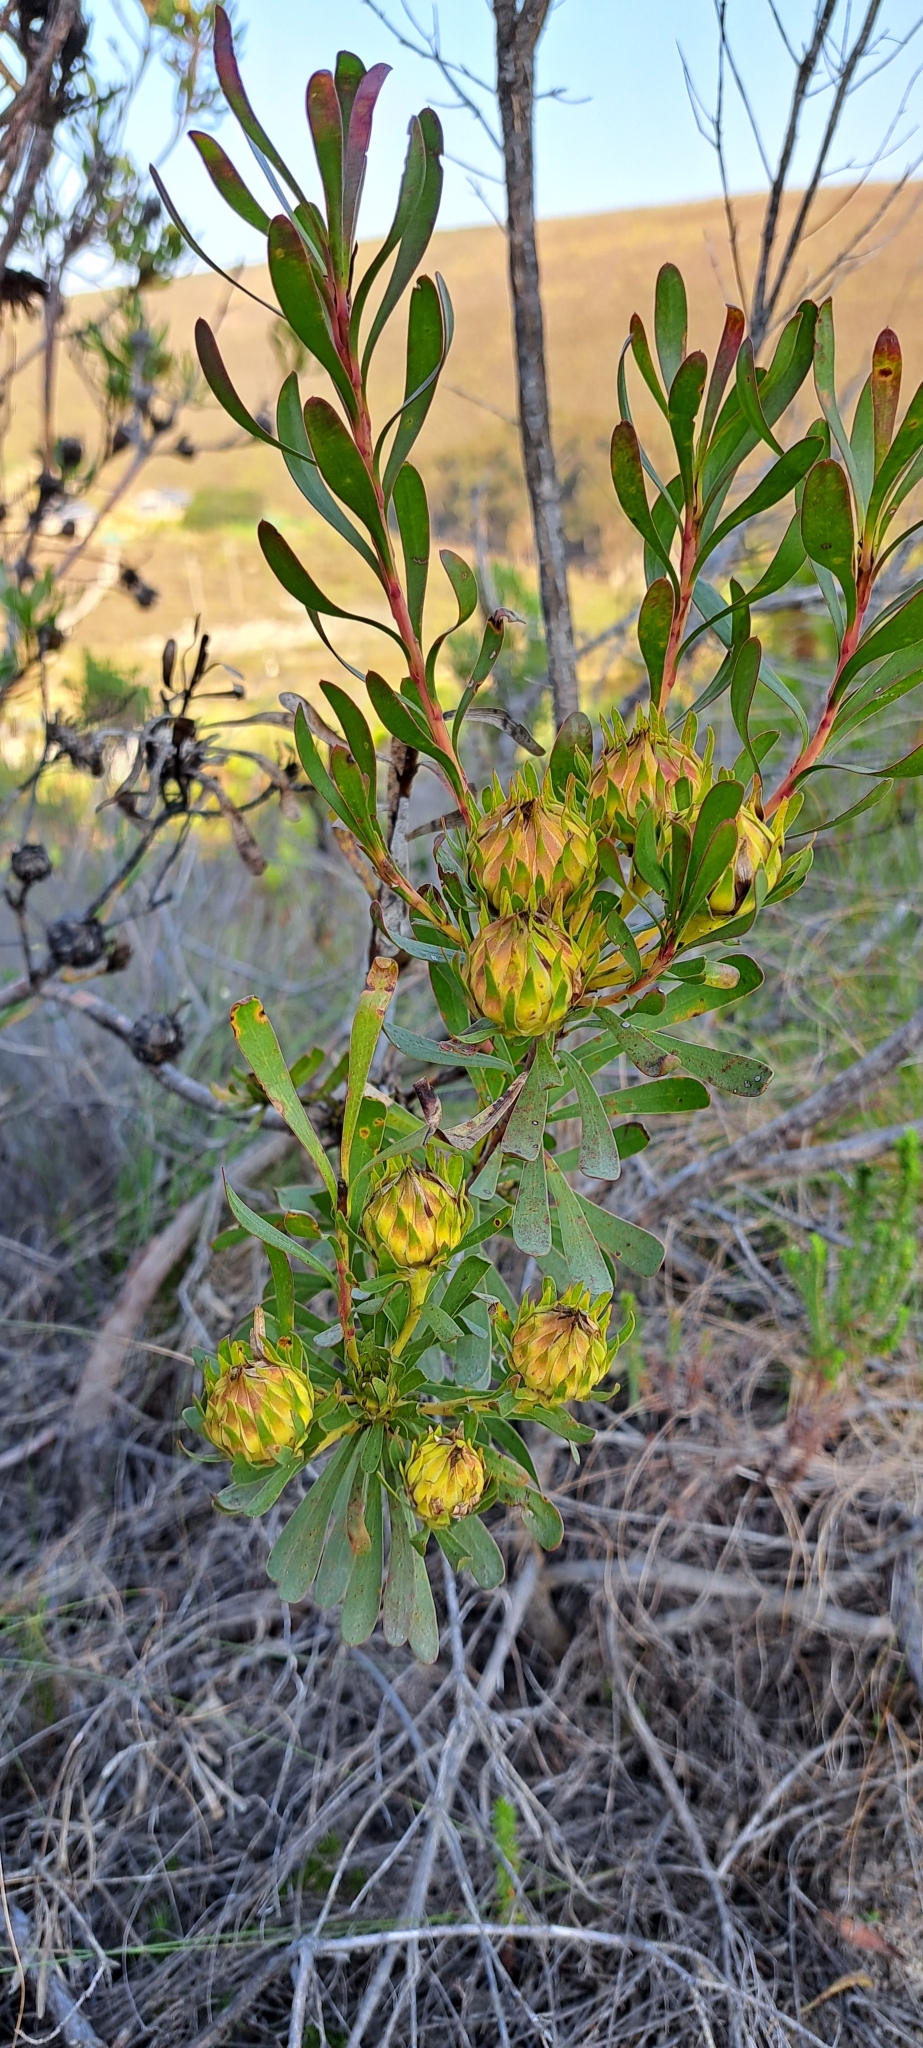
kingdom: Plantae
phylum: Tracheophyta
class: Magnoliopsida
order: Proteales
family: Proteaceae
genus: Aulax
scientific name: Aulax umbellata
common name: Broad-leaf featherbush
